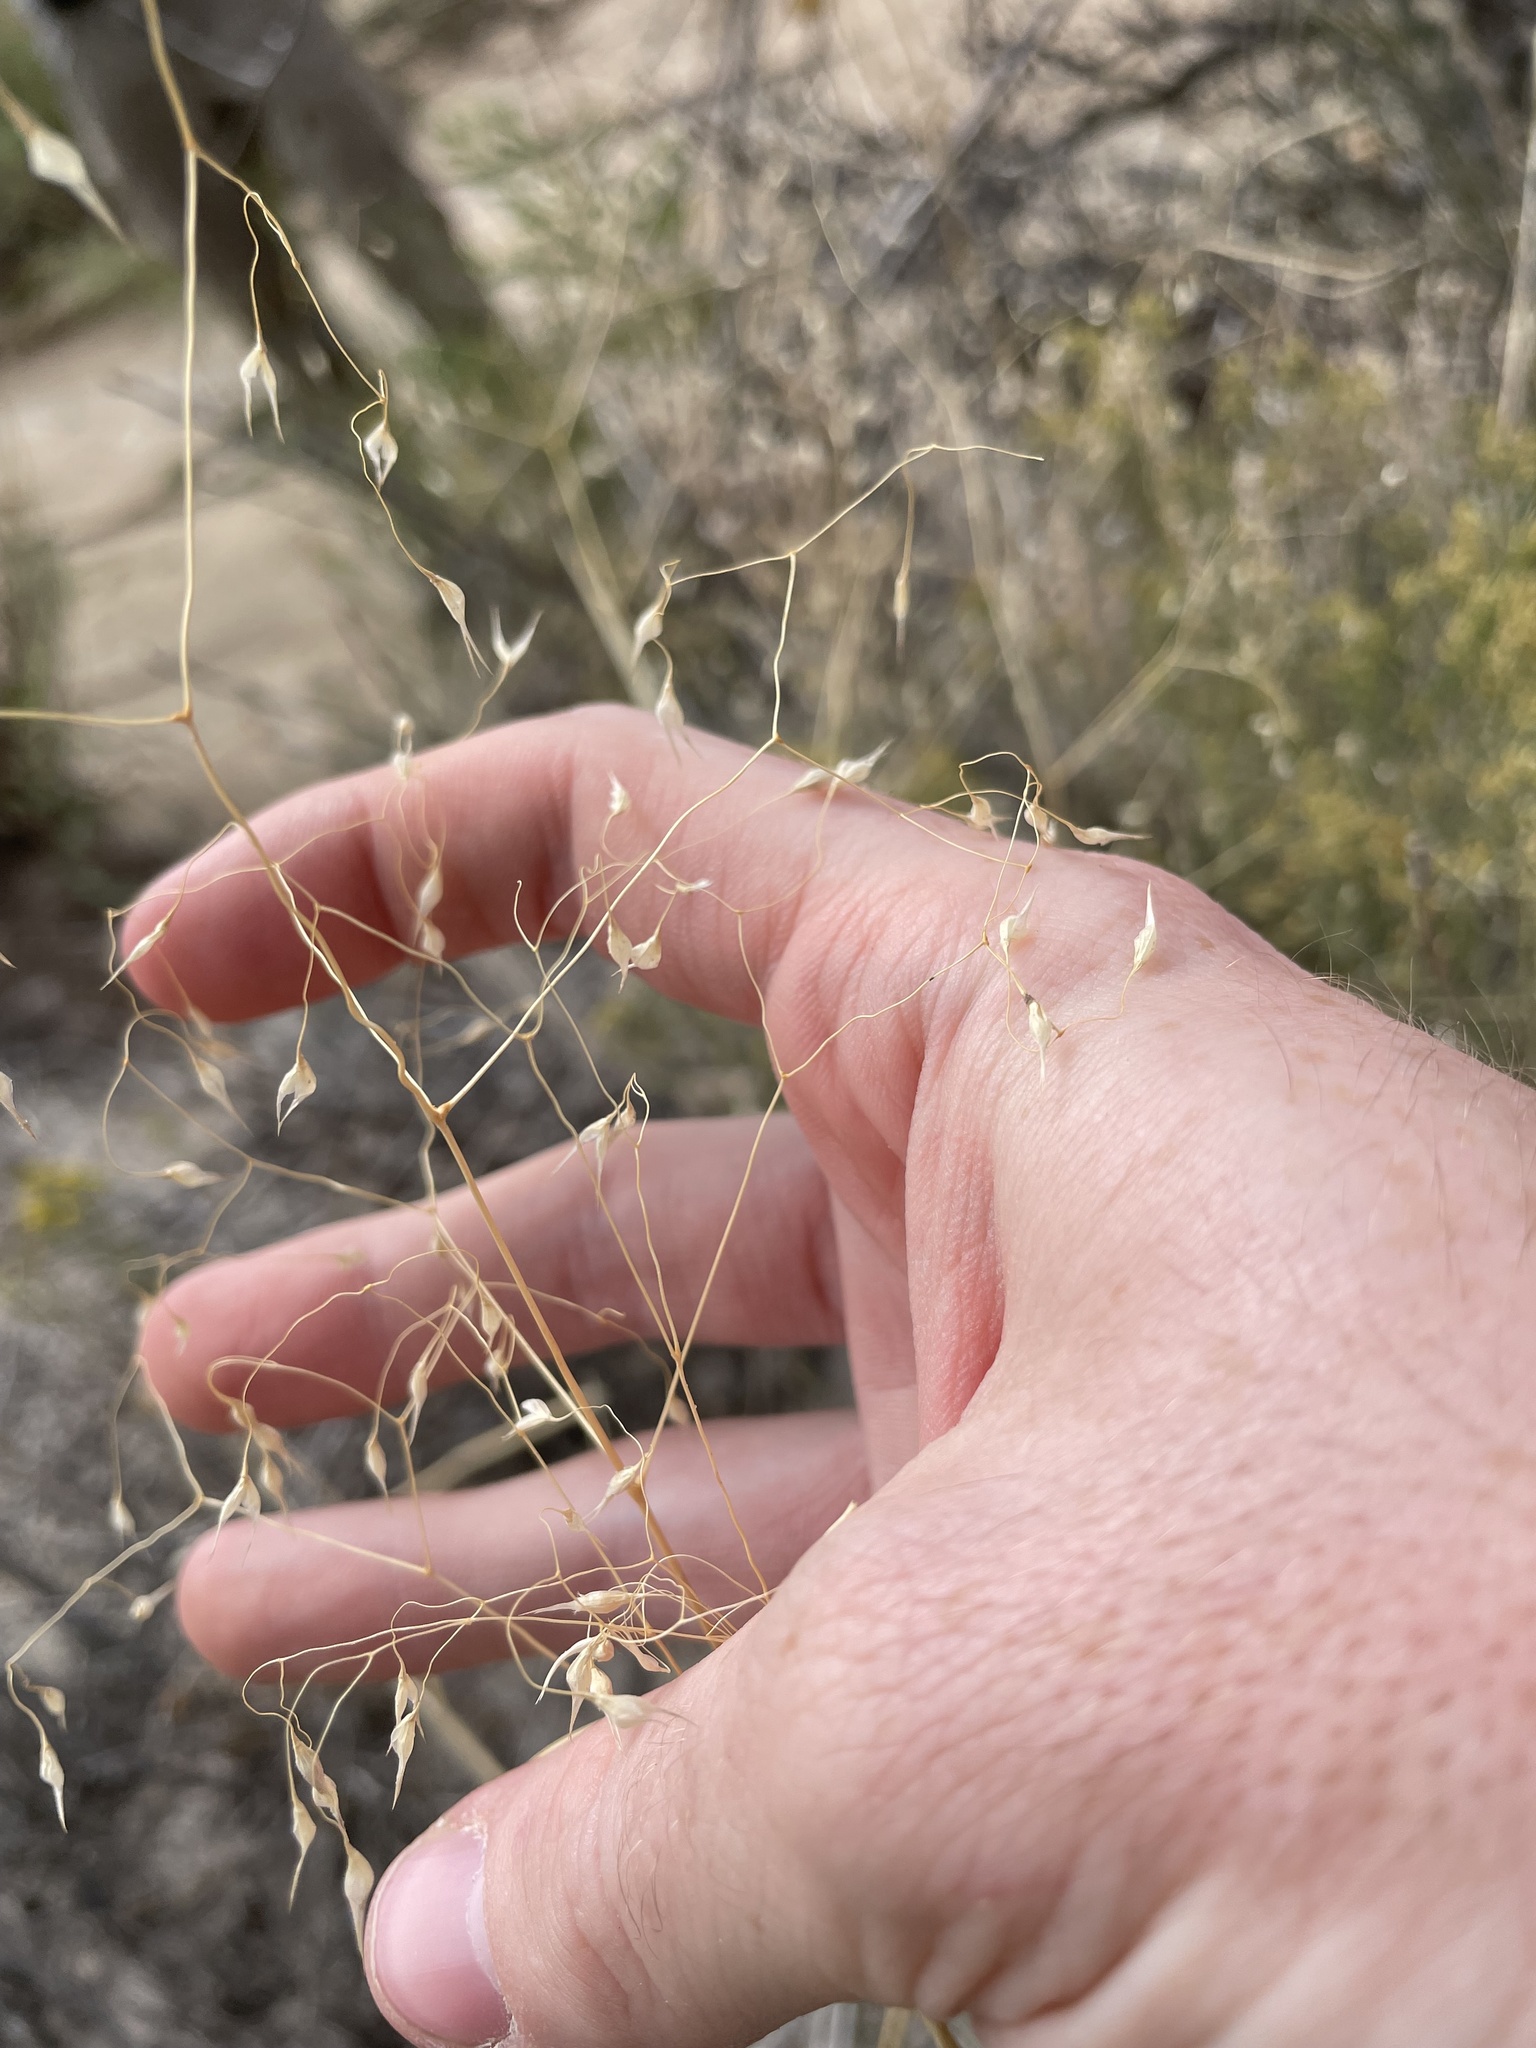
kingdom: Plantae
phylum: Tracheophyta
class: Liliopsida
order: Poales
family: Poaceae
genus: Eriocoma
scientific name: Eriocoma hymenoides
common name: Indian mountain ricegrass
